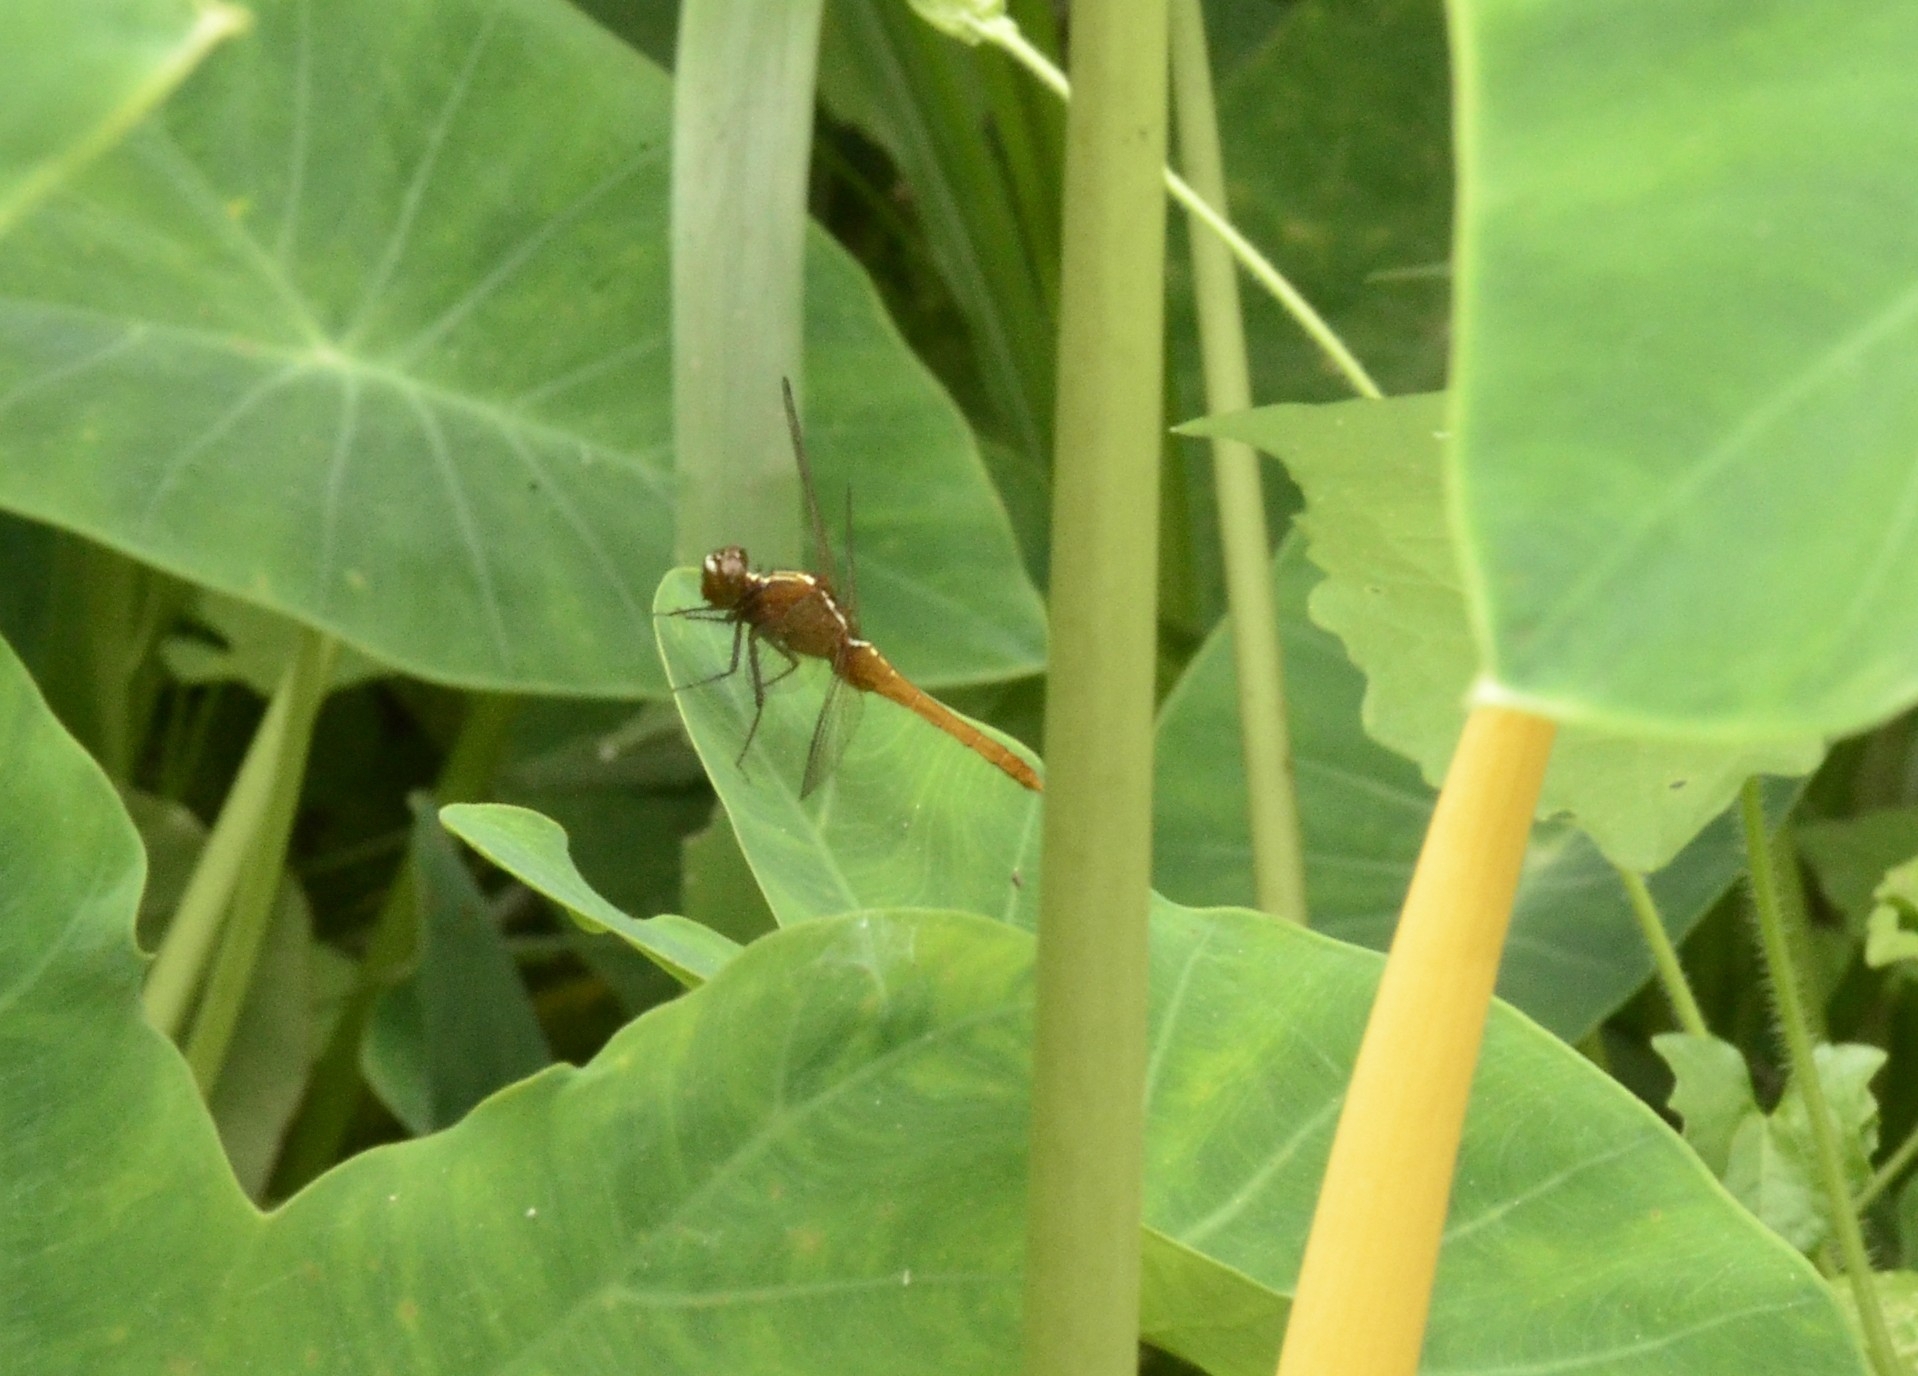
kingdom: Animalia
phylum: Arthropoda
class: Insecta
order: Odonata
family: Libellulidae
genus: Rhodothemis
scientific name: Rhodothemis rufa
